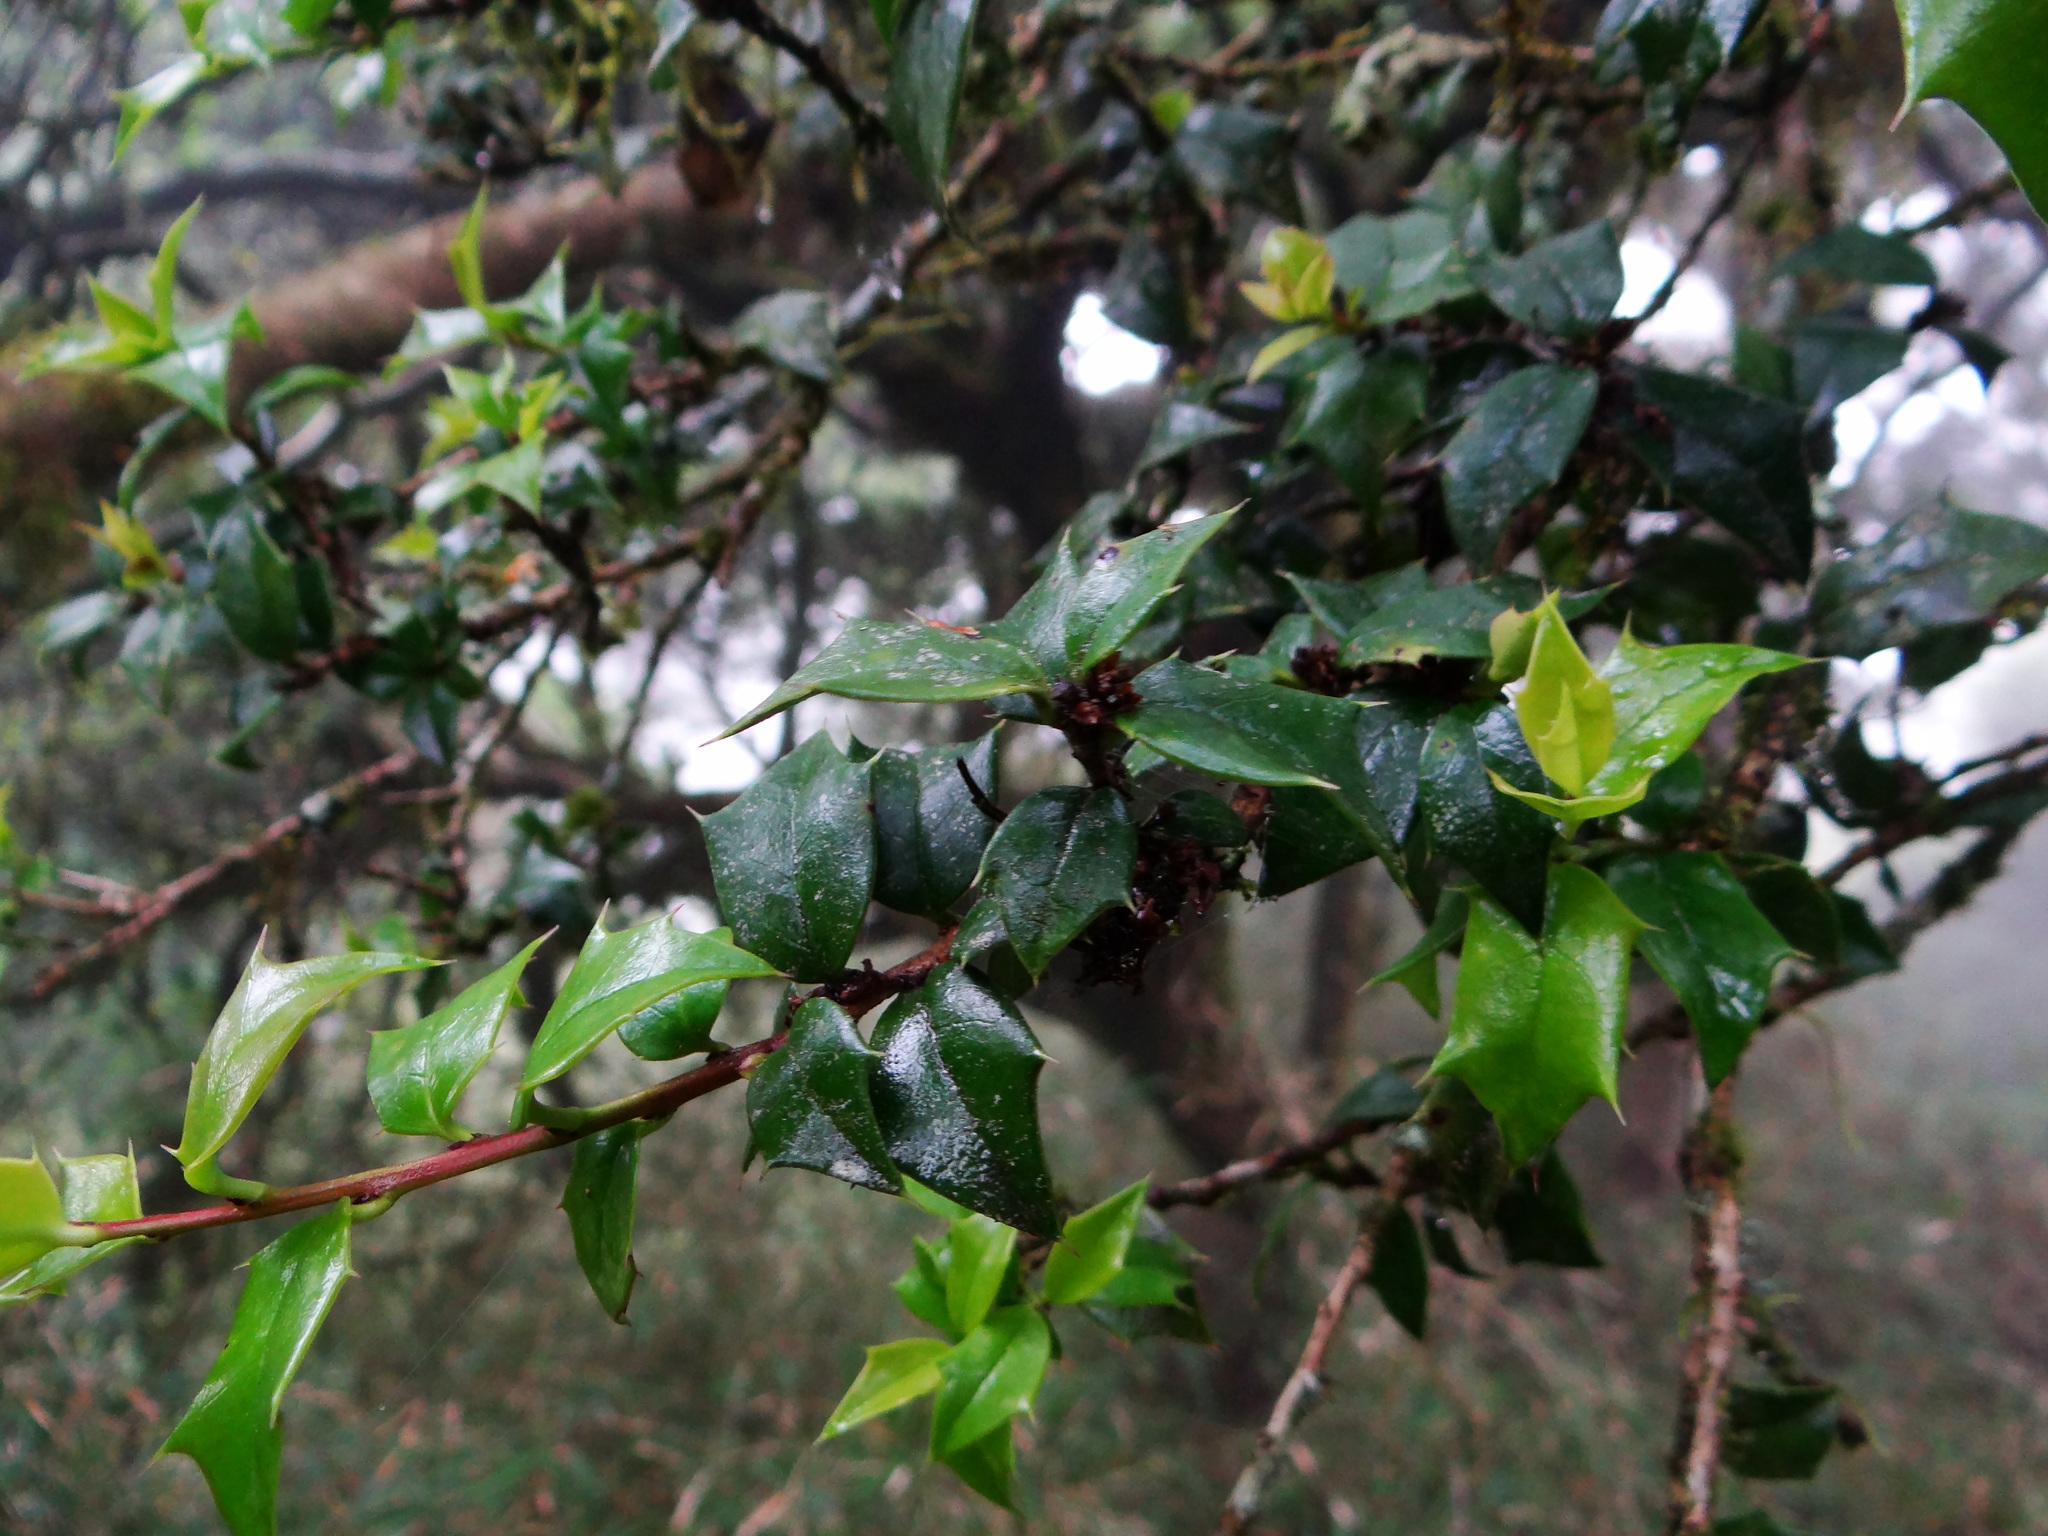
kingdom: Plantae
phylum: Tracheophyta
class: Magnoliopsida
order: Aquifoliales
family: Aquifoliaceae
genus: Ilex
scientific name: Ilex bioritsensis
